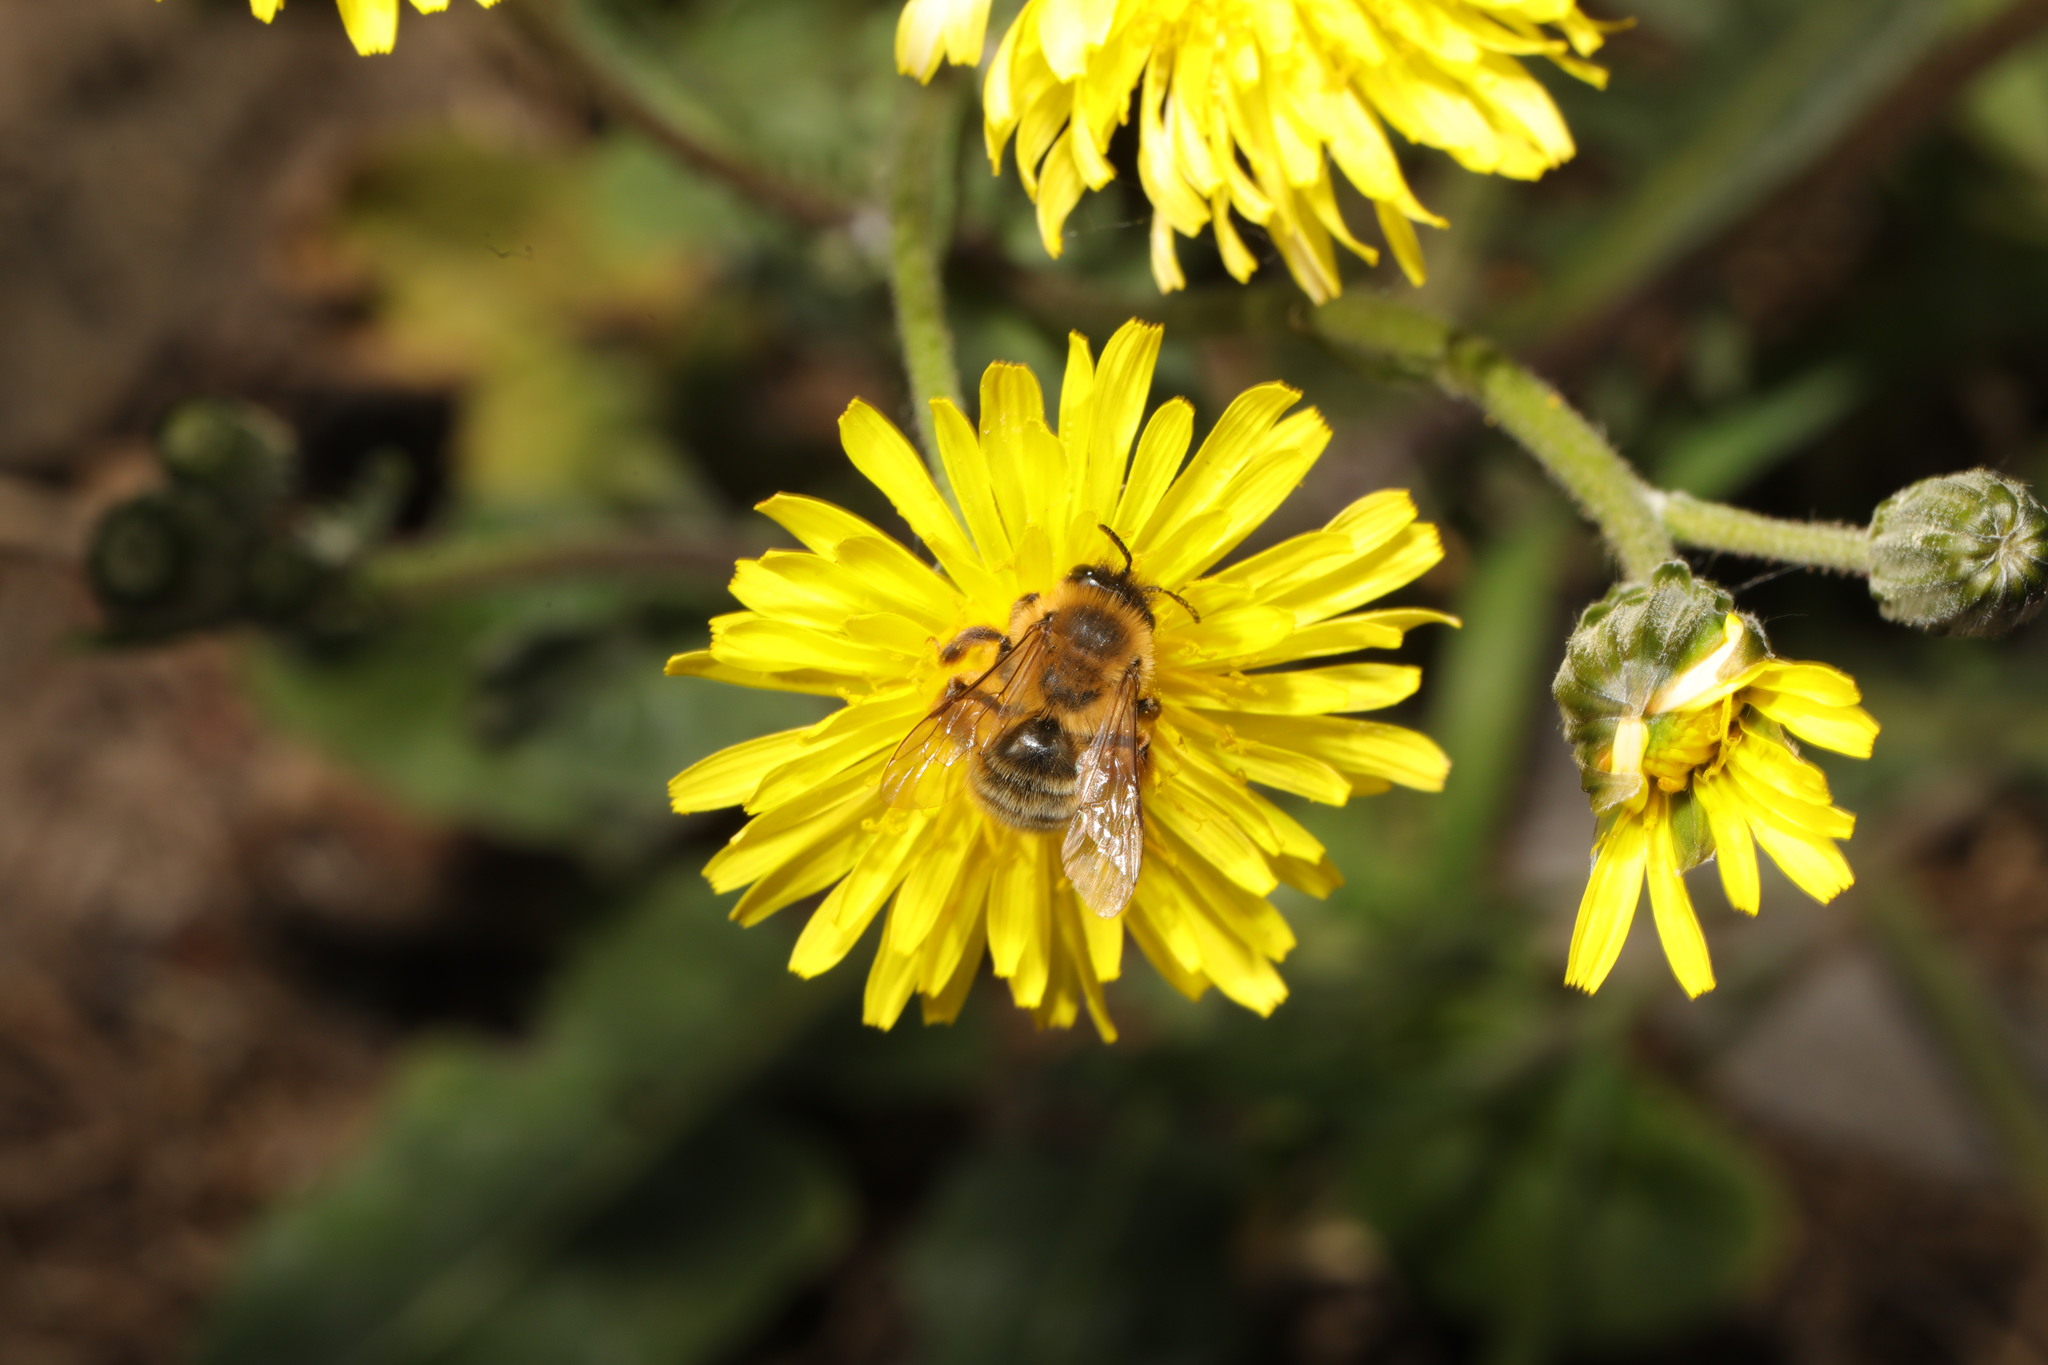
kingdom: Animalia
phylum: Arthropoda
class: Insecta
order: Hymenoptera
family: Andrenidae
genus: Andrena
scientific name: Andrena nigroaenea
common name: Buffish mining bee
